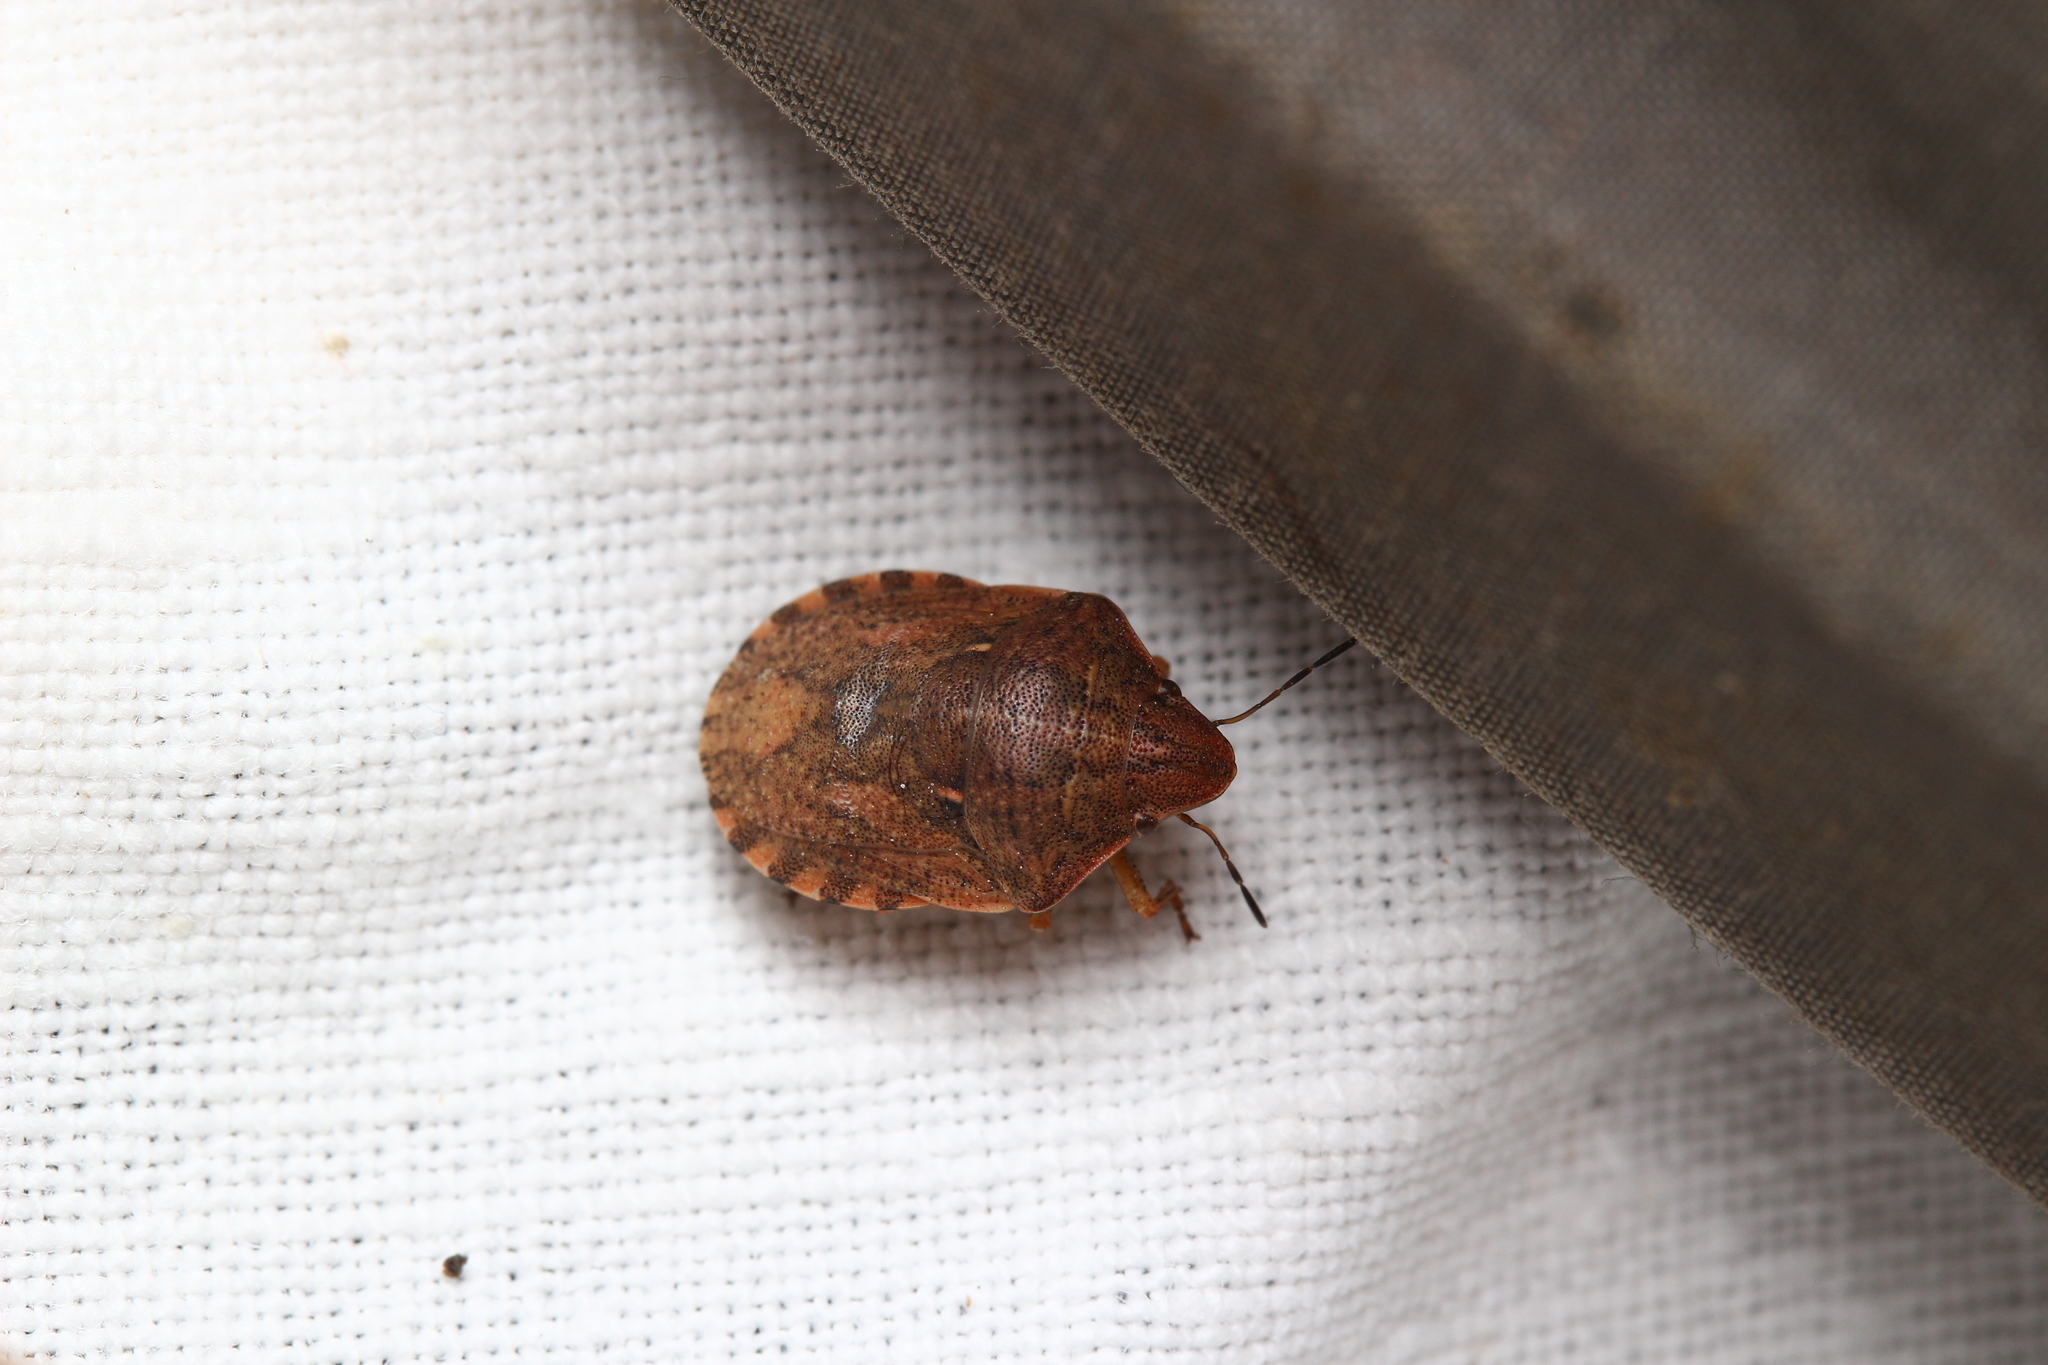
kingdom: Animalia
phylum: Arthropoda
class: Insecta
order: Hemiptera
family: Scutelleridae
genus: Eurygaster
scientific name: Eurygaster maura
